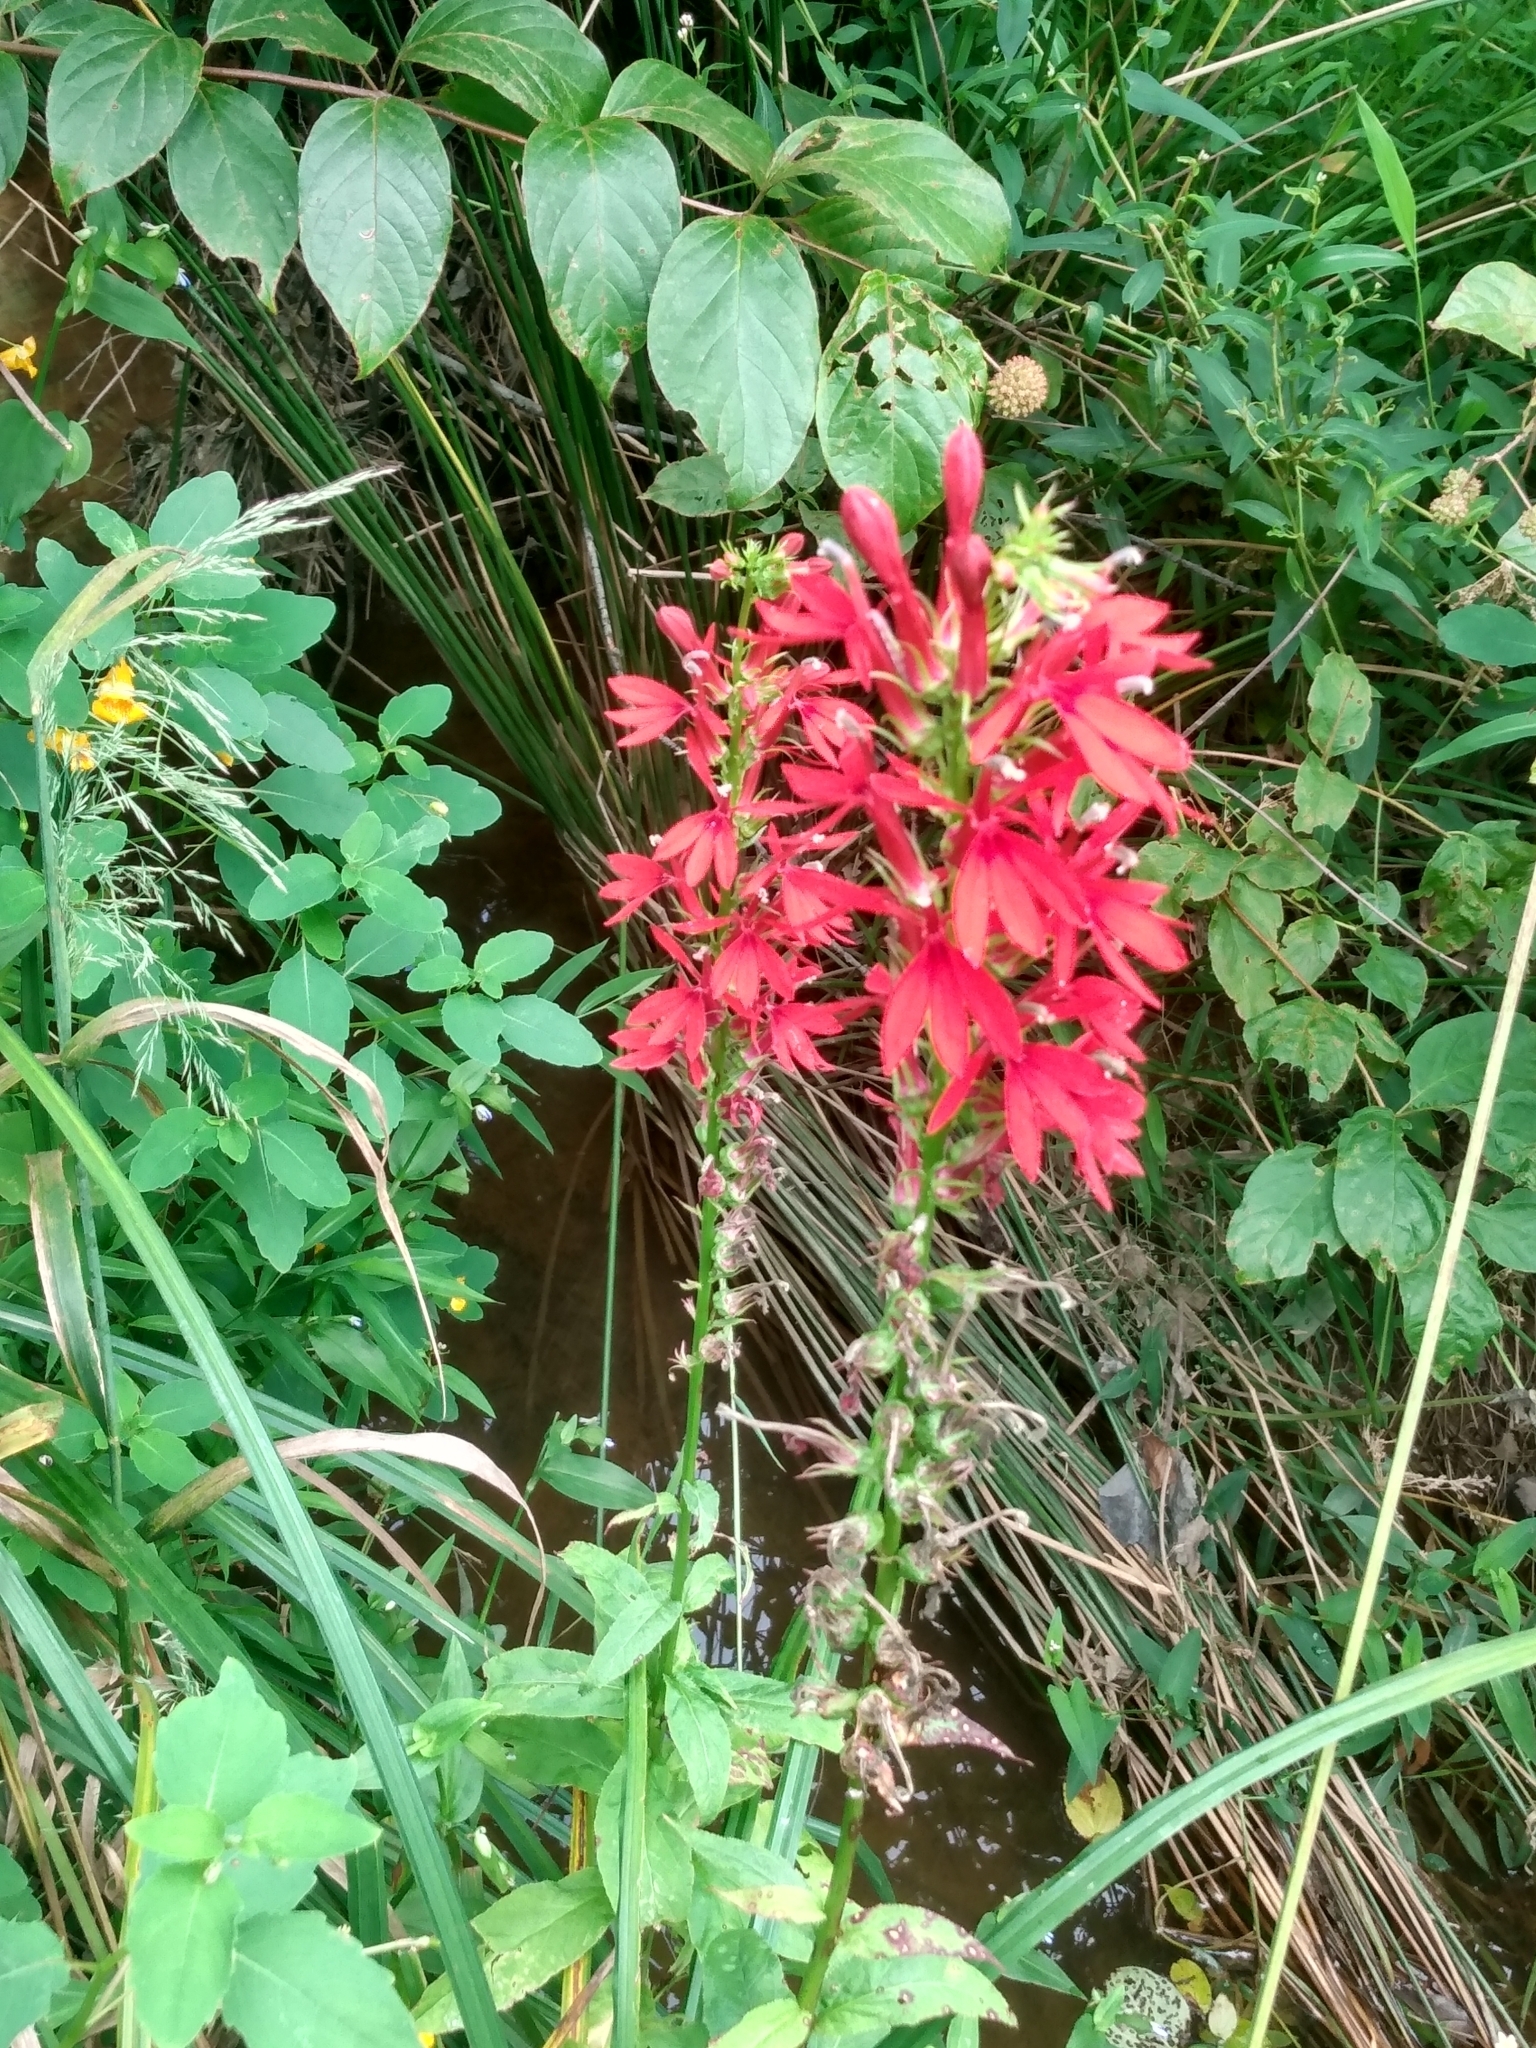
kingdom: Plantae
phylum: Tracheophyta
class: Magnoliopsida
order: Asterales
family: Campanulaceae
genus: Lobelia
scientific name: Lobelia cardinalis
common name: Cardinal flower
